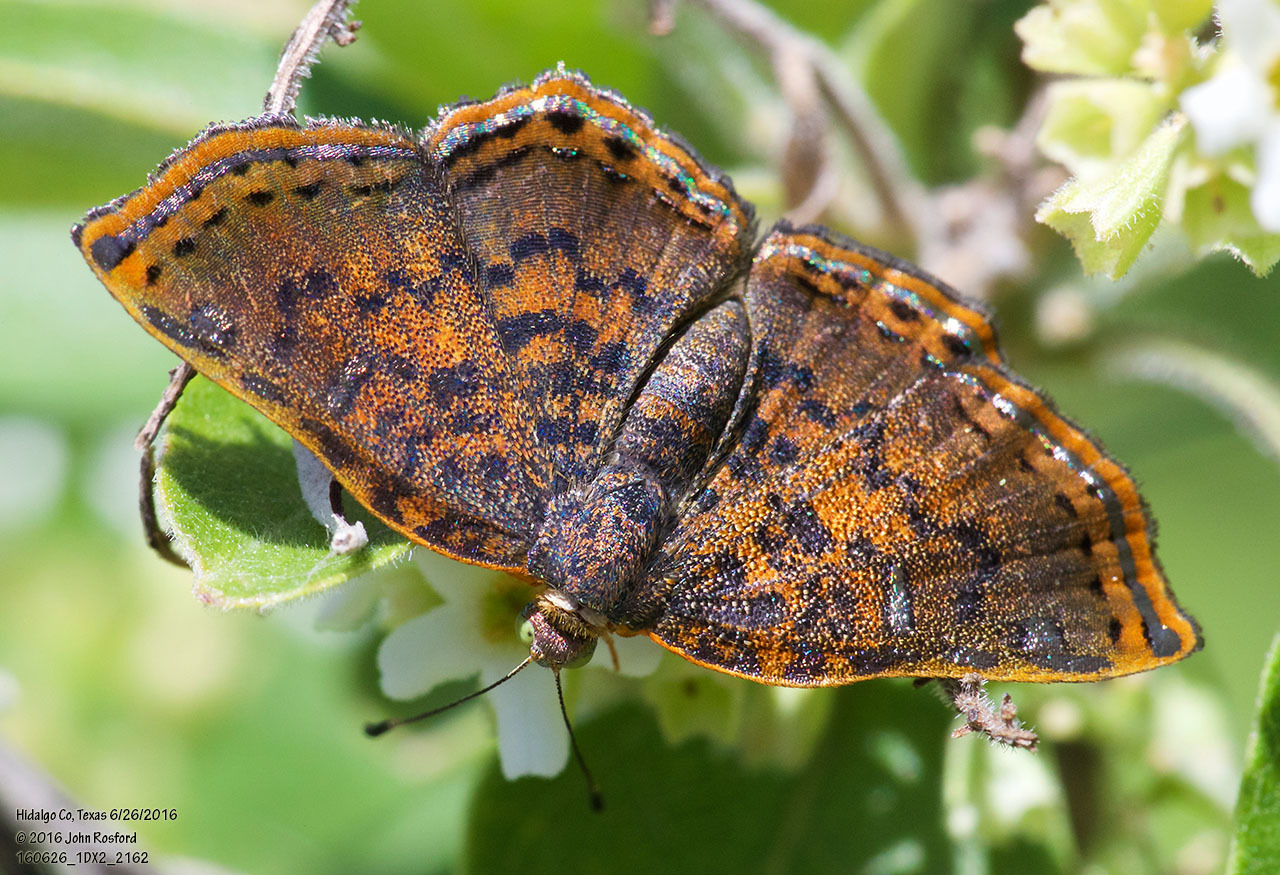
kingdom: Animalia
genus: Caria
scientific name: Caria ino
